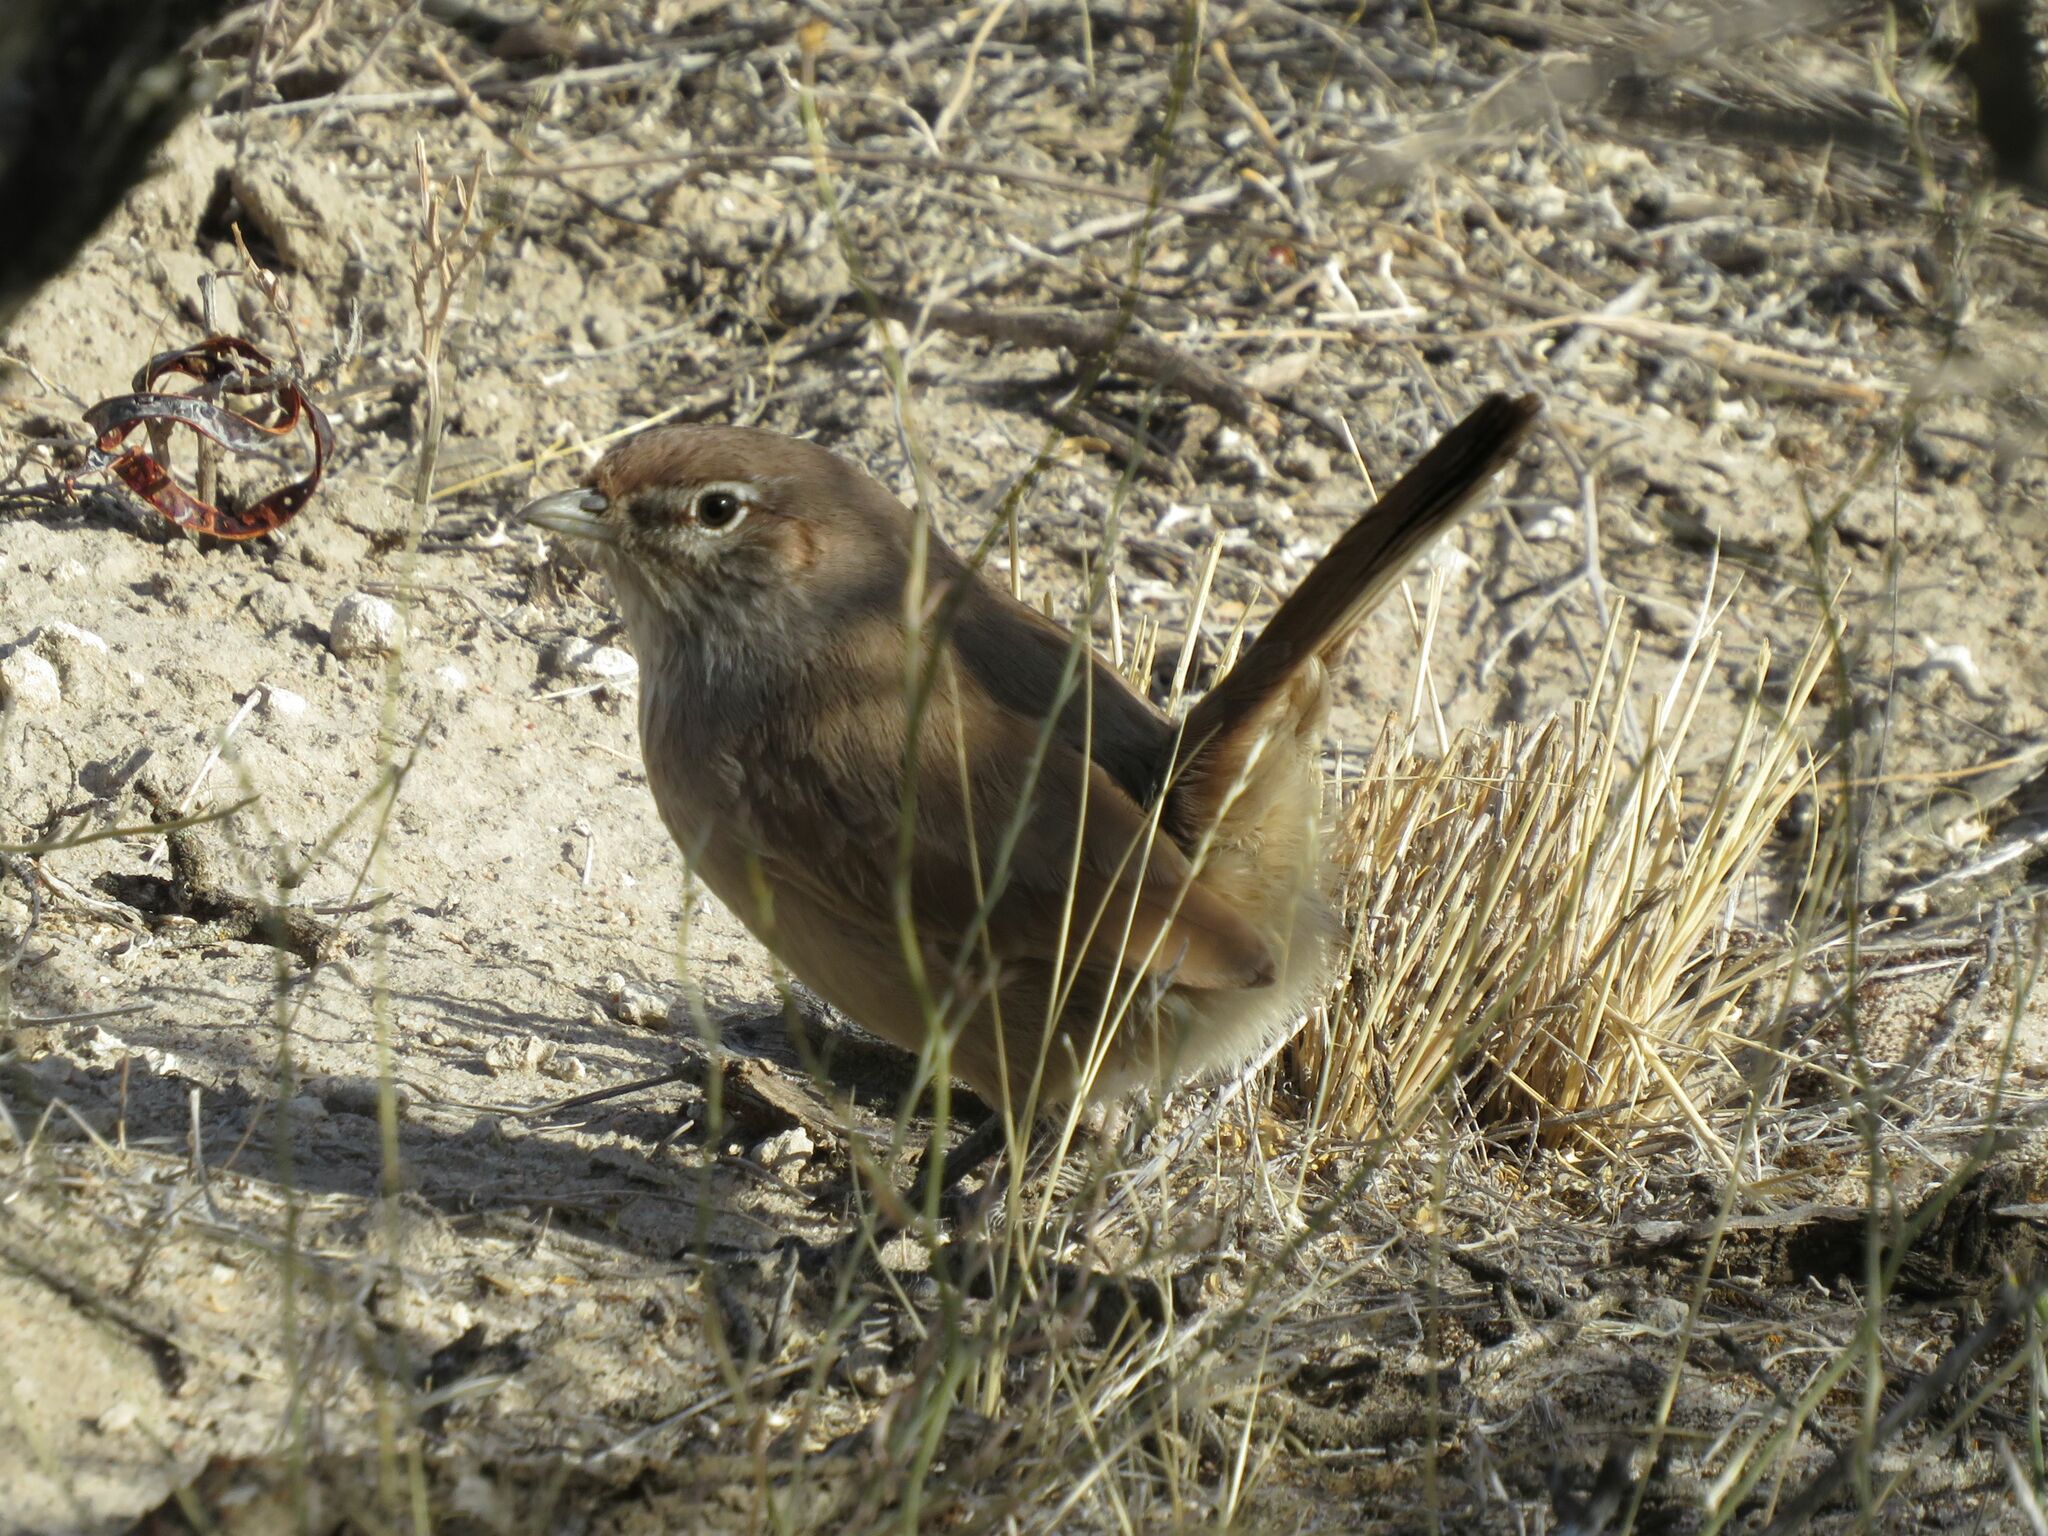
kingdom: Animalia
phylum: Chordata
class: Aves
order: Passeriformes
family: Rhinocryptidae
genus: Teledromas
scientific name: Teledromas fuscus
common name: Sandy gallito
